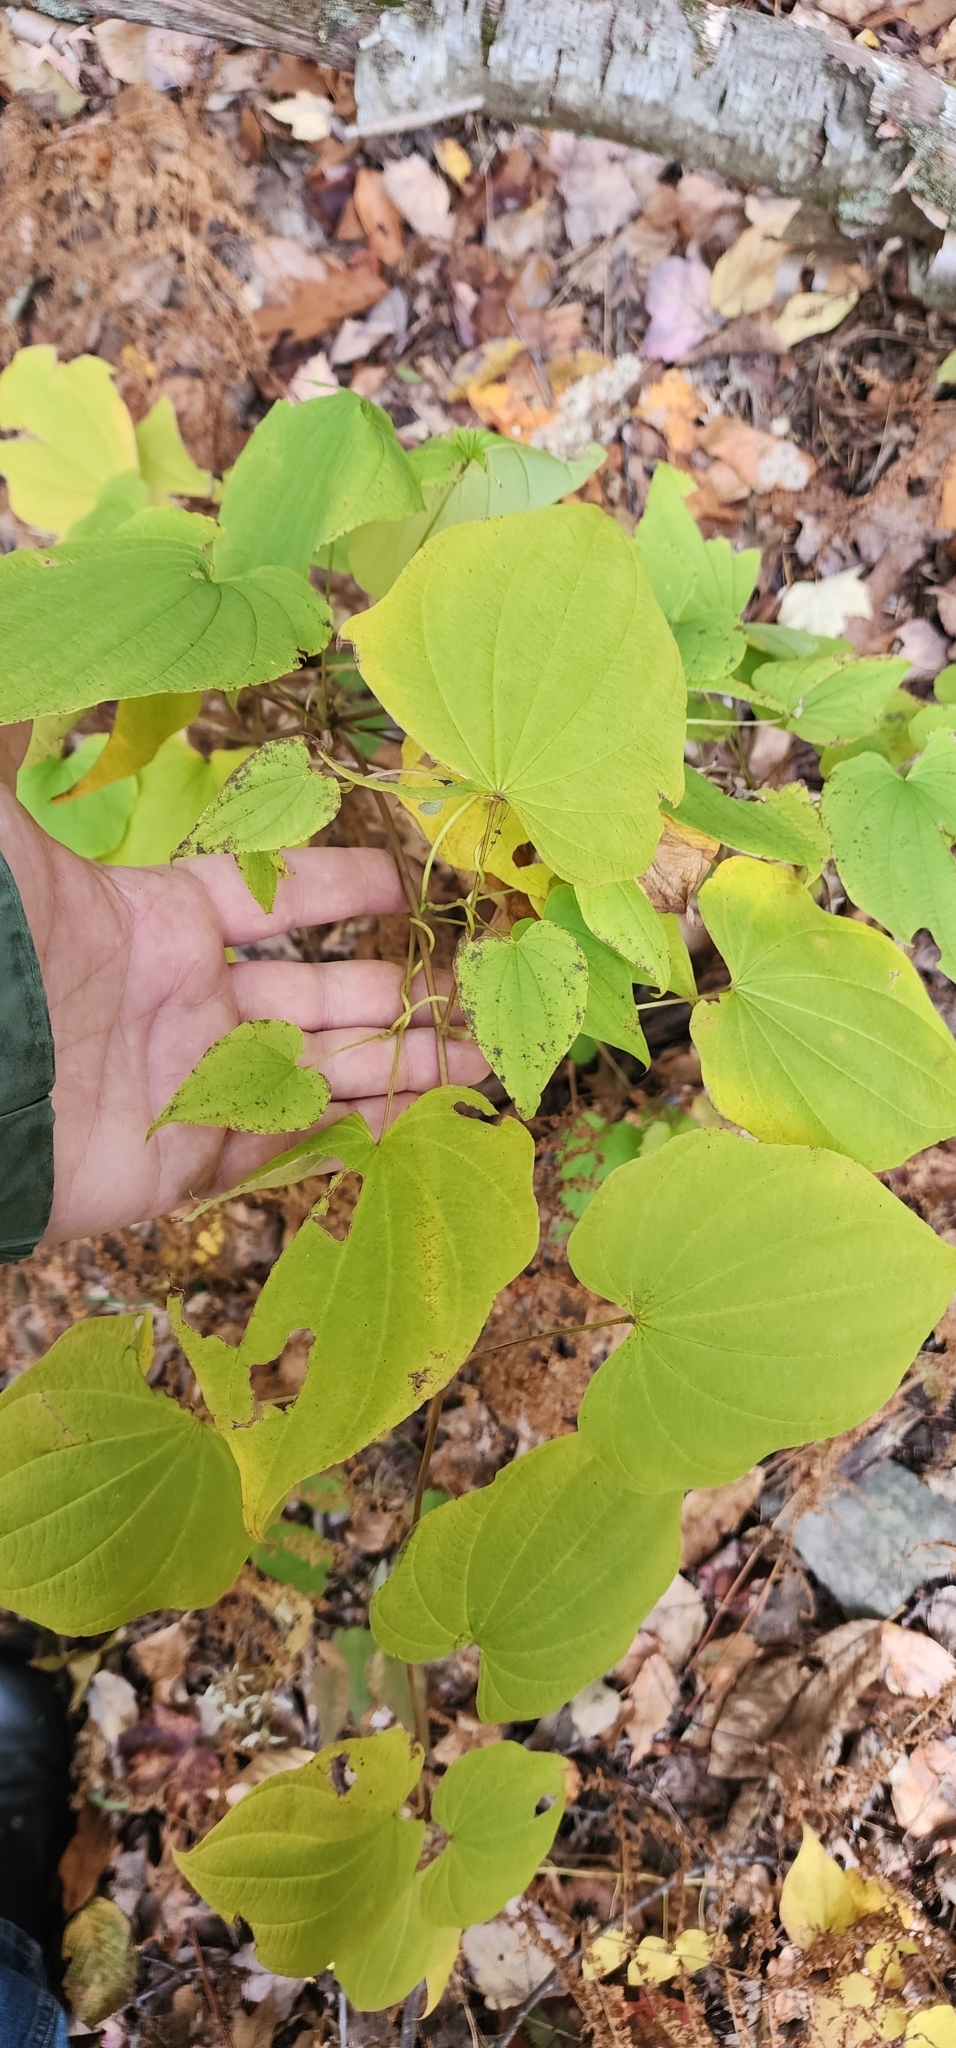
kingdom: Plantae
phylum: Tracheophyta
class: Liliopsida
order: Dioscoreales
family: Dioscoreaceae
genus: Dioscorea
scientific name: Dioscorea villosa
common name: Wild yam
